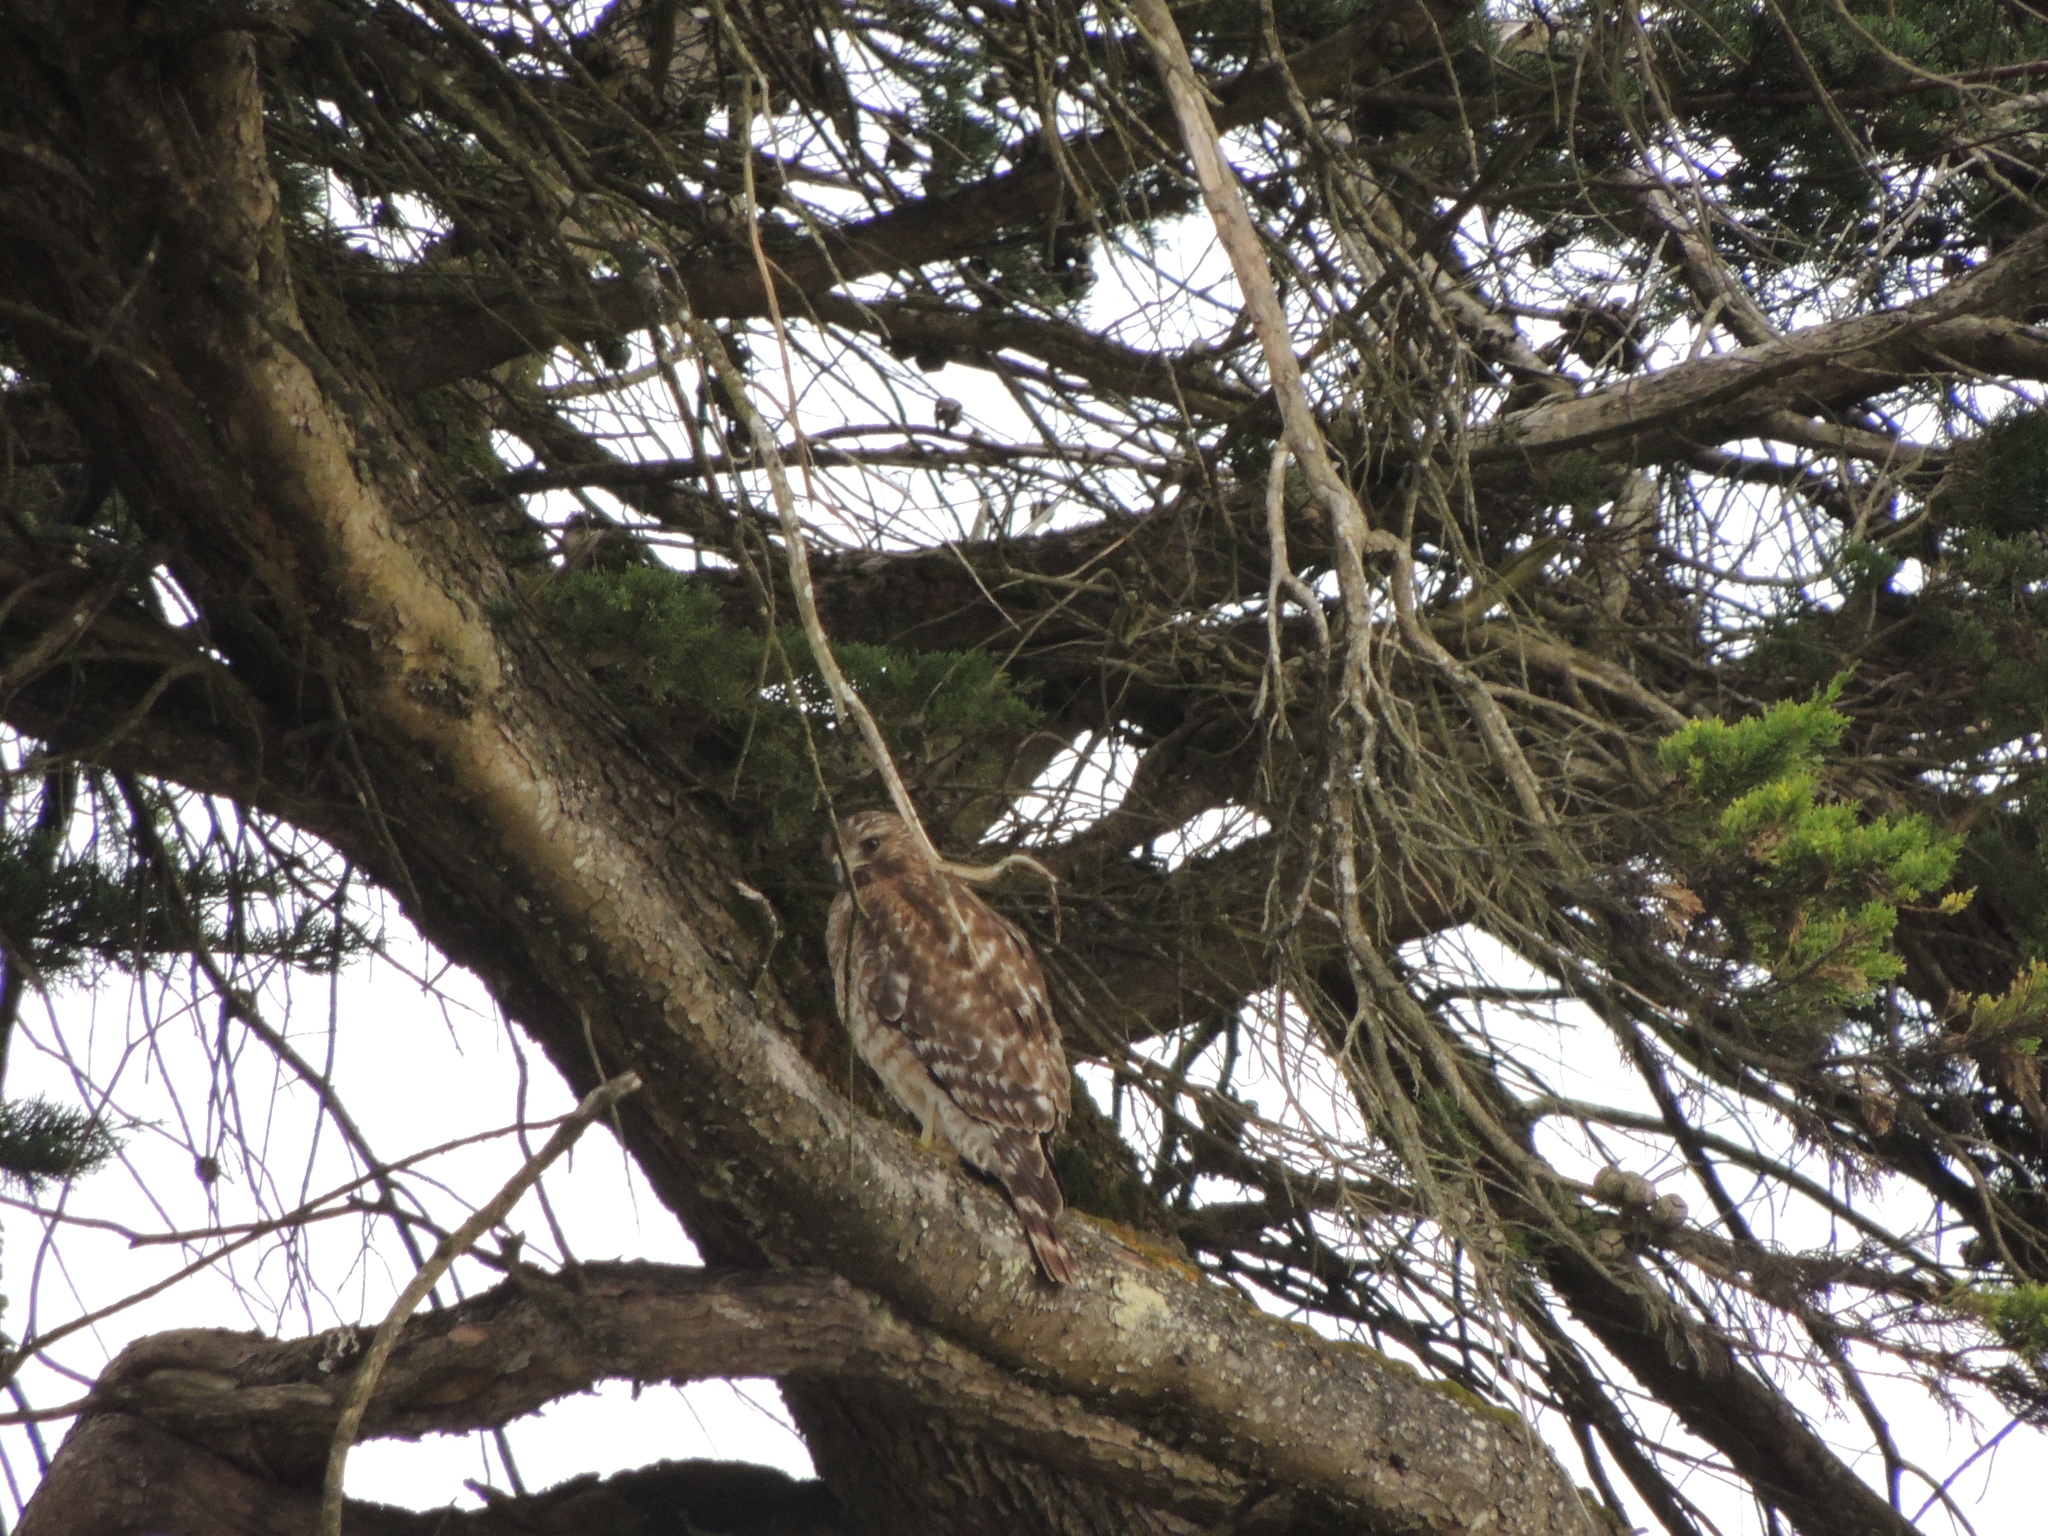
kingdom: Animalia
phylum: Chordata
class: Aves
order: Accipitriformes
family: Accipitridae
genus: Buteo
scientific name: Buteo lineatus
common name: Red-shouldered hawk
